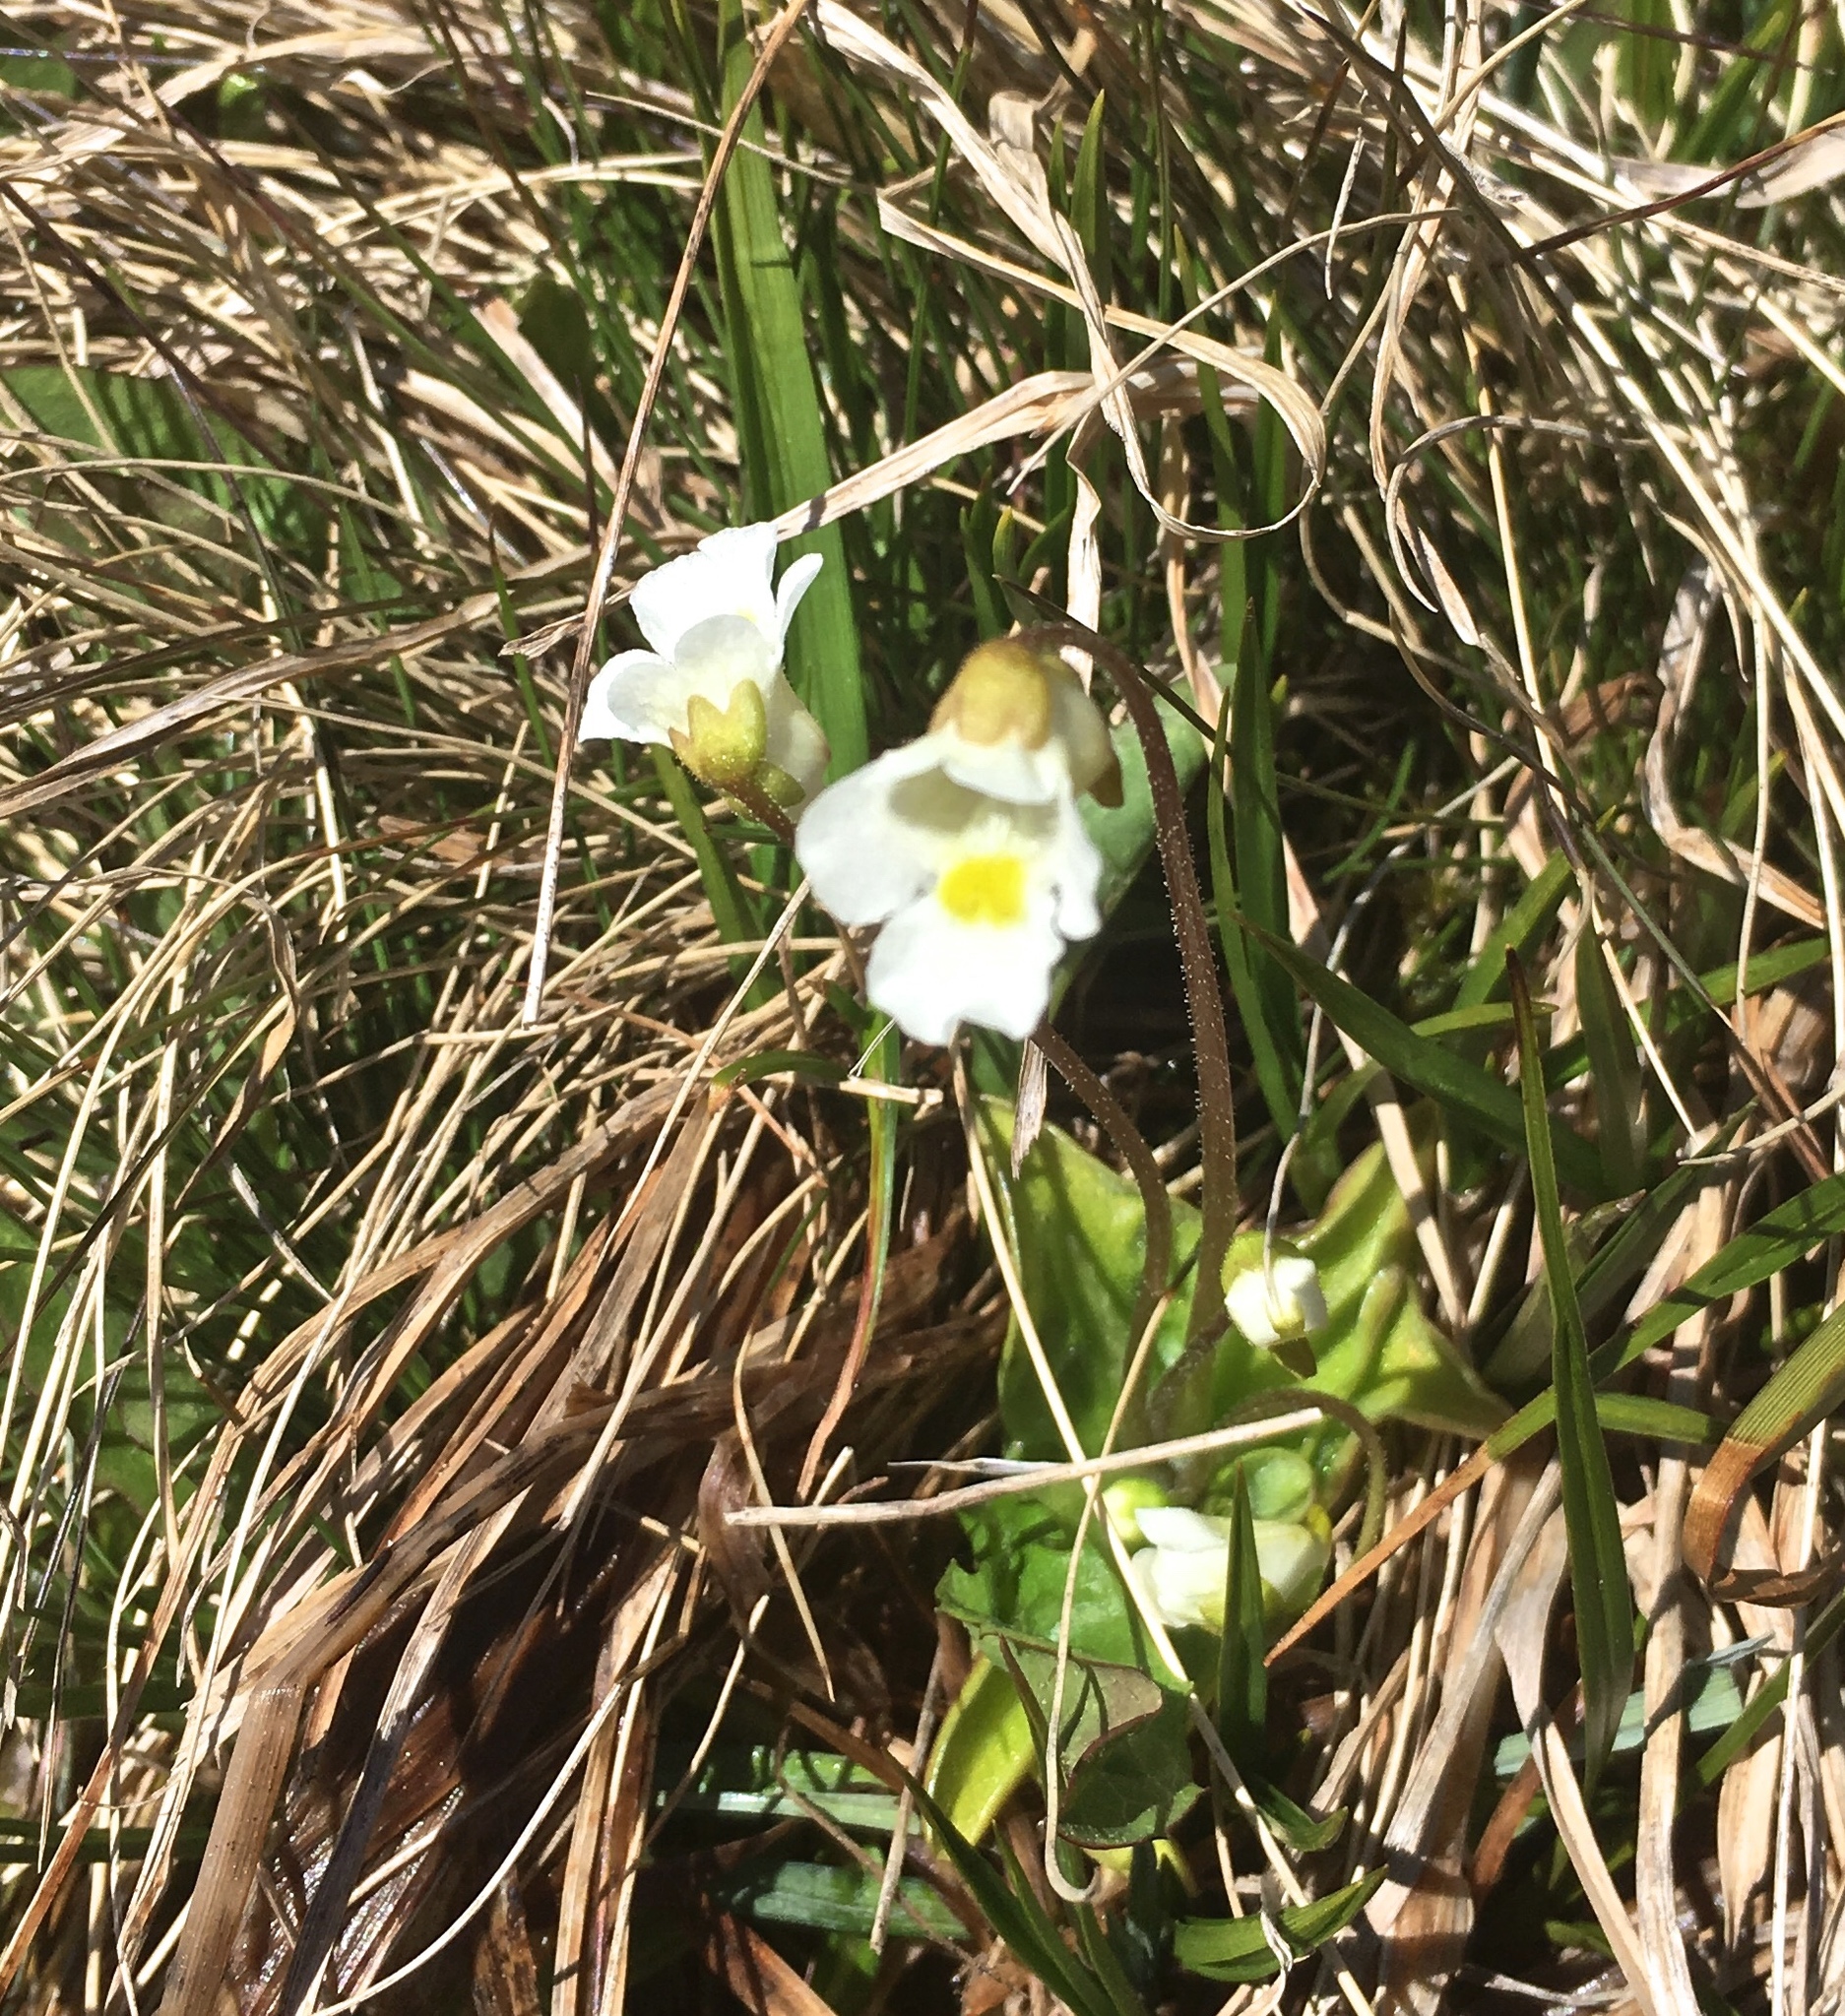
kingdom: Plantae
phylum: Tracheophyta
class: Magnoliopsida
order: Lamiales
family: Lentibulariaceae
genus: Pinguicula
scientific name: Pinguicula alpina
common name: Alpine butterwort
